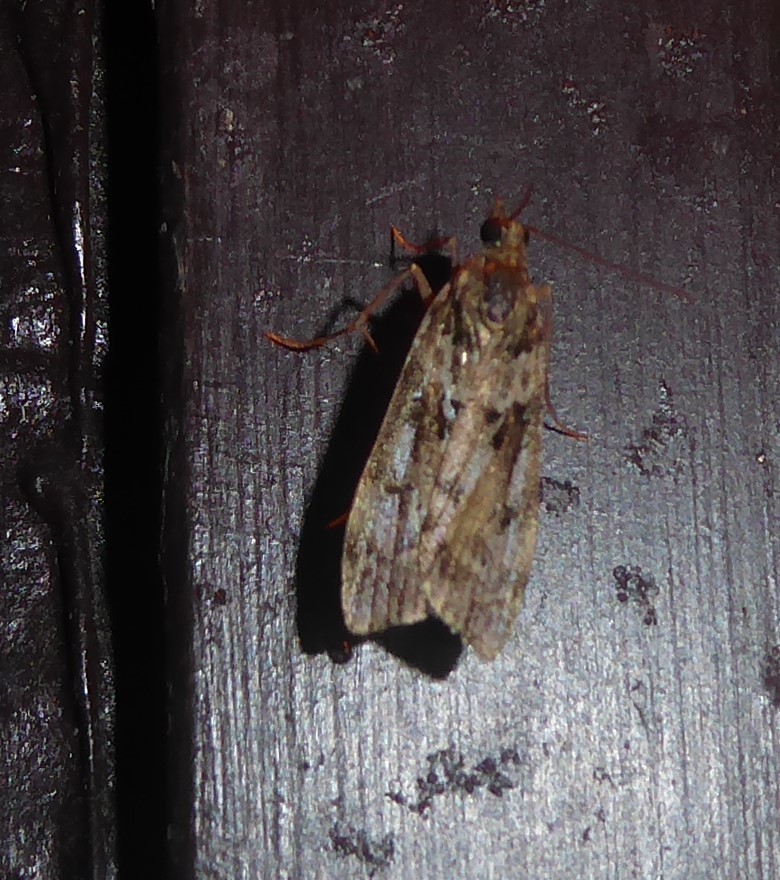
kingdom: Animalia
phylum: Arthropoda
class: Insecta
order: Lepidoptera
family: Crambidae
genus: Eudonia
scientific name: Eudonia submarginalis
